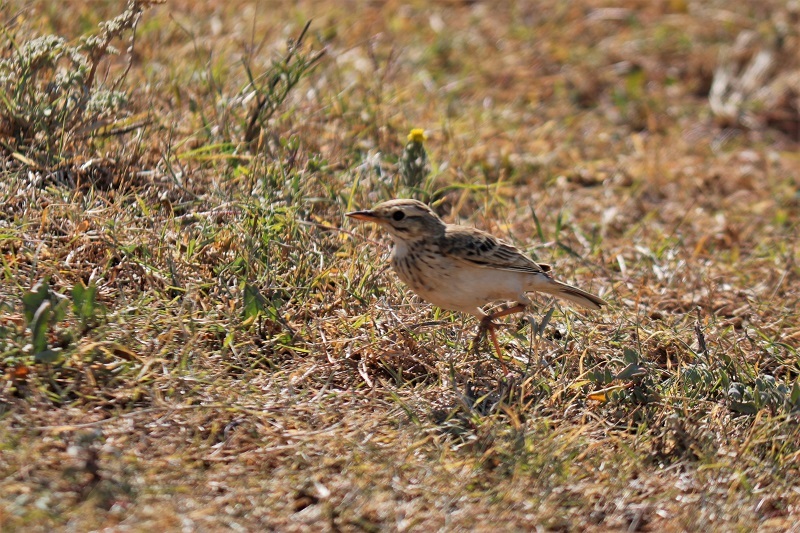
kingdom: Animalia
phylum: Chordata
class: Aves
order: Passeriformes
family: Motacillidae
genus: Anthus
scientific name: Anthus cinnamomeus
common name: African pipit
